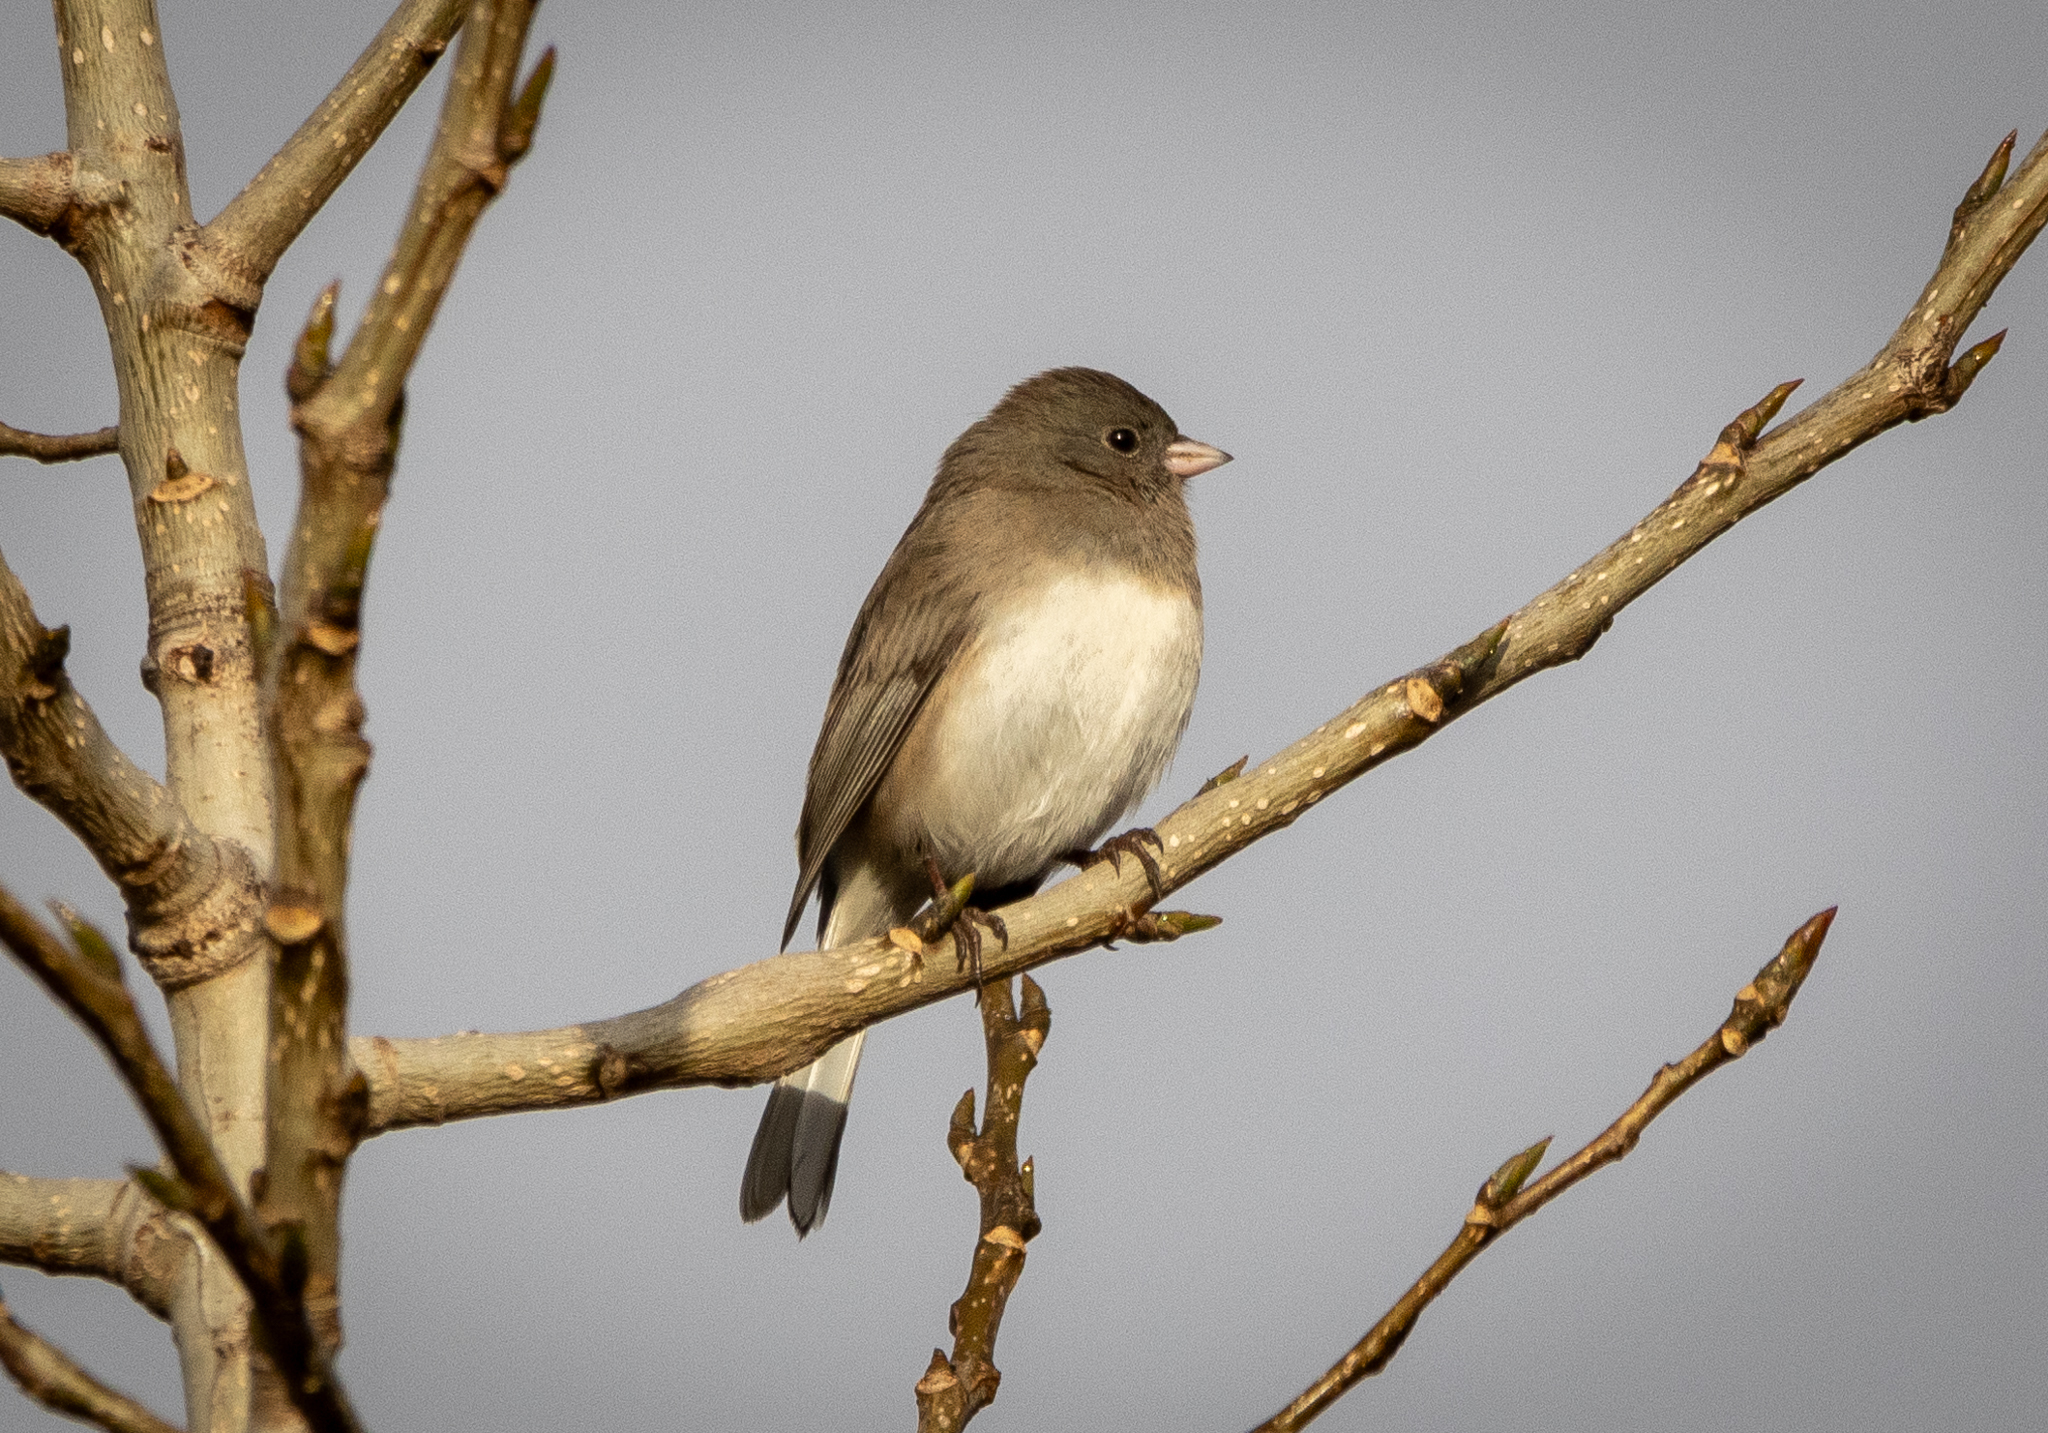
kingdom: Animalia
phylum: Chordata
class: Aves
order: Passeriformes
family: Passerellidae
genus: Junco
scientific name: Junco hyemalis
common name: Dark-eyed junco
